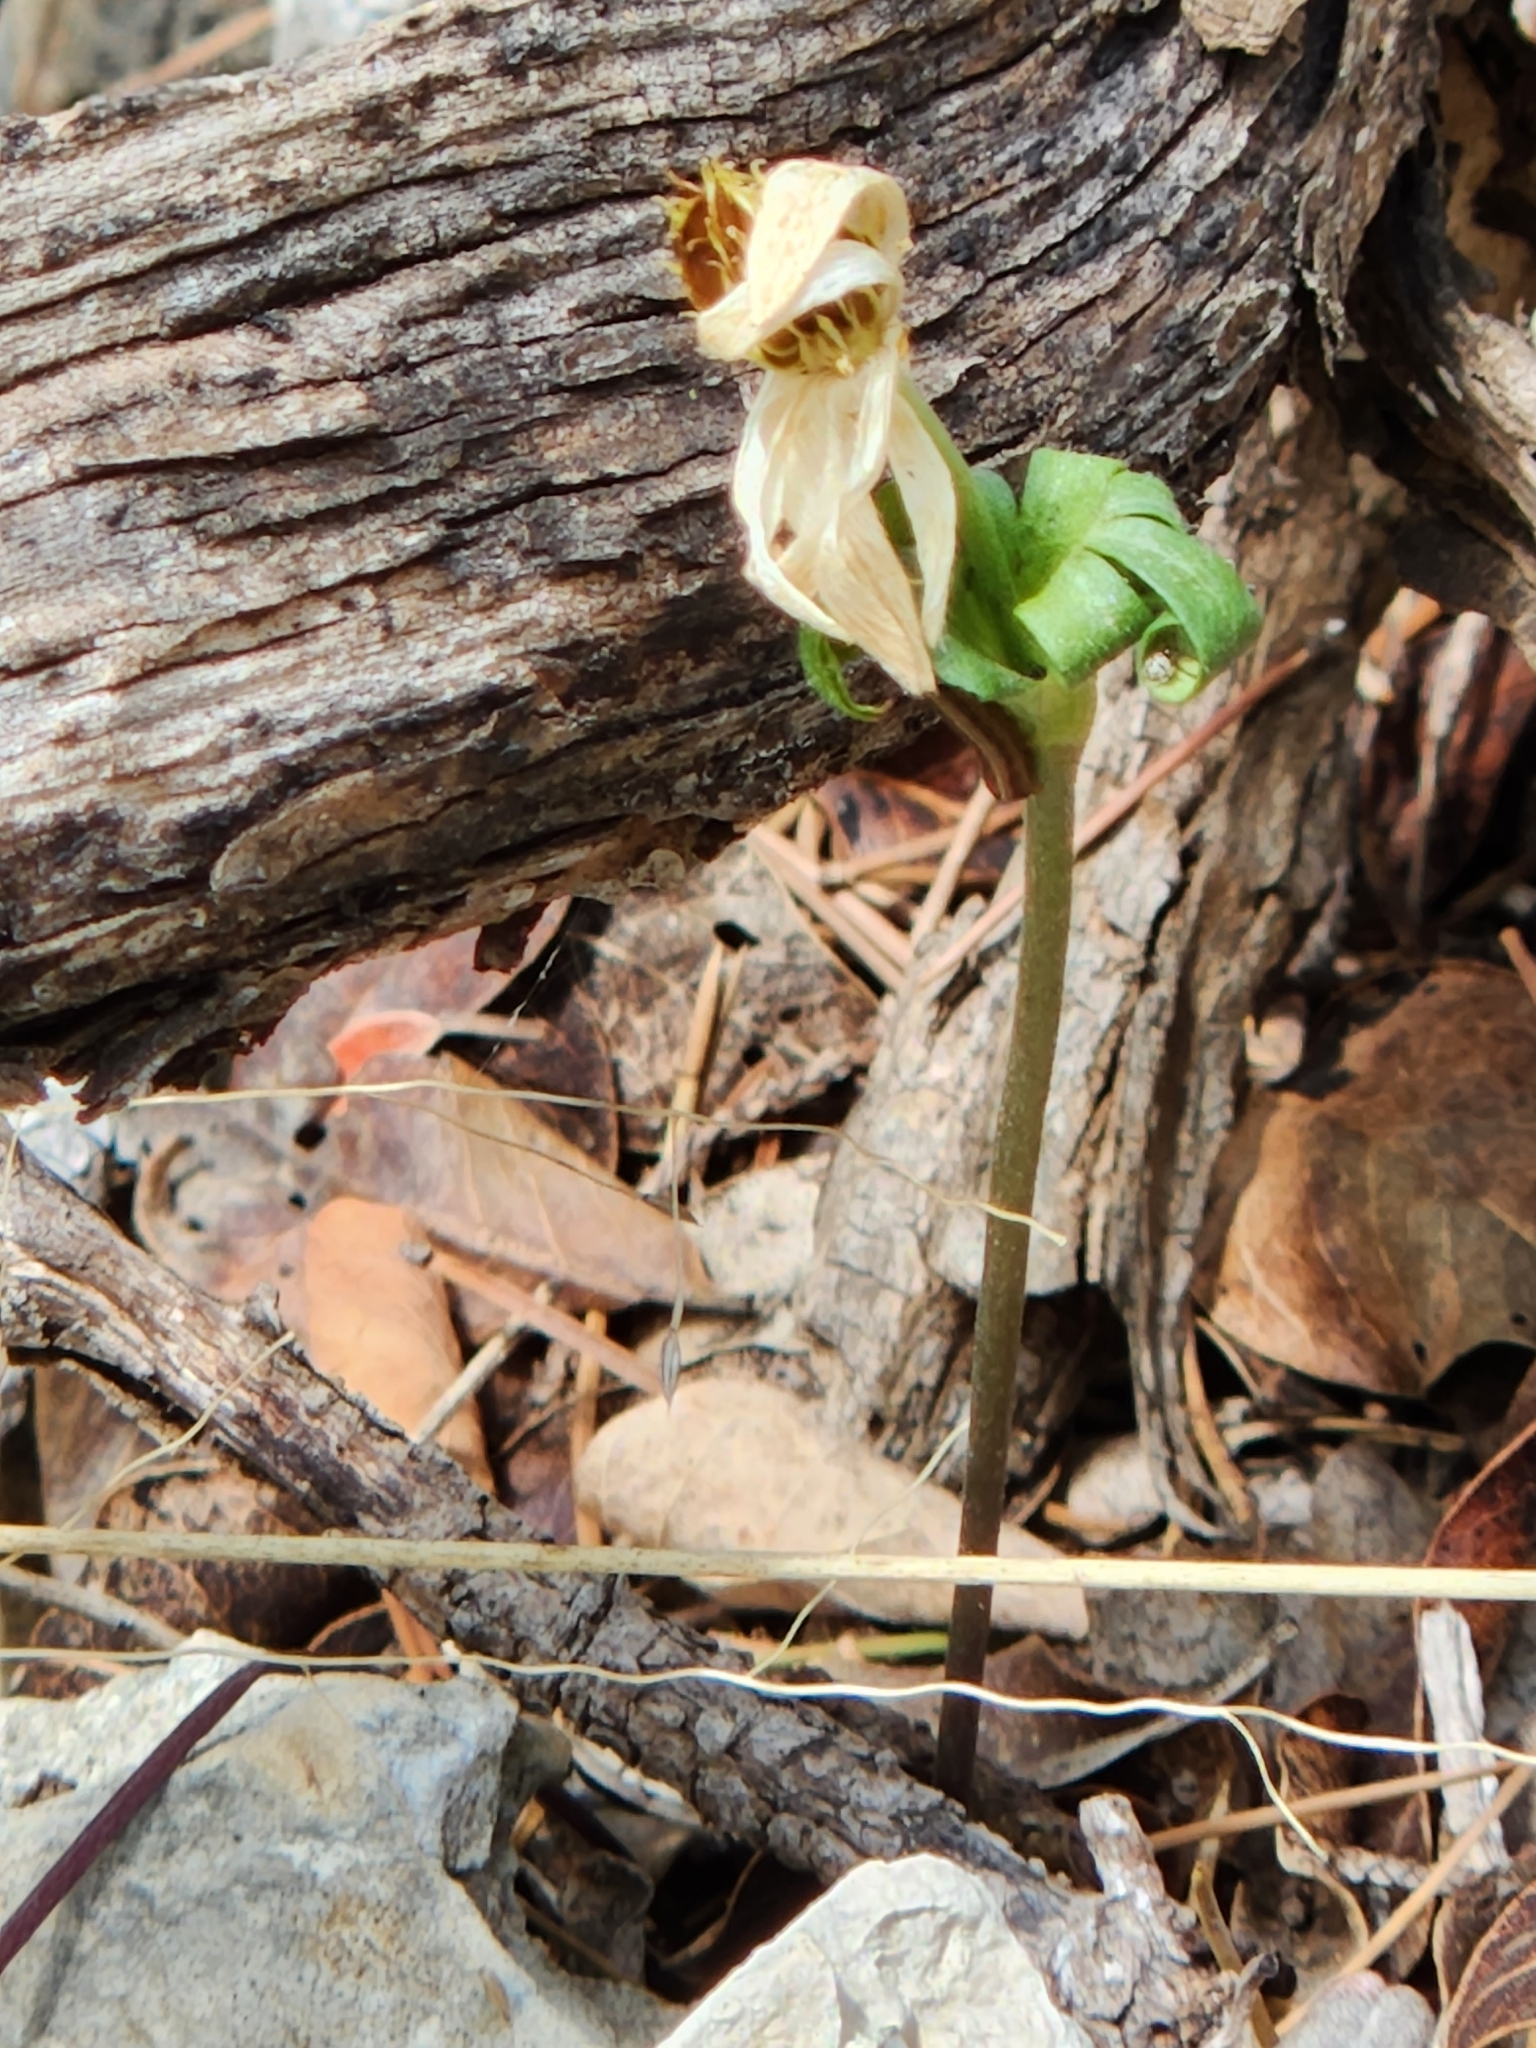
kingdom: Plantae
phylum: Tracheophyta
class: Magnoliopsida
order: Ranunculales
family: Ranunculaceae
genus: Anemone
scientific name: Anemone edwardsiana
